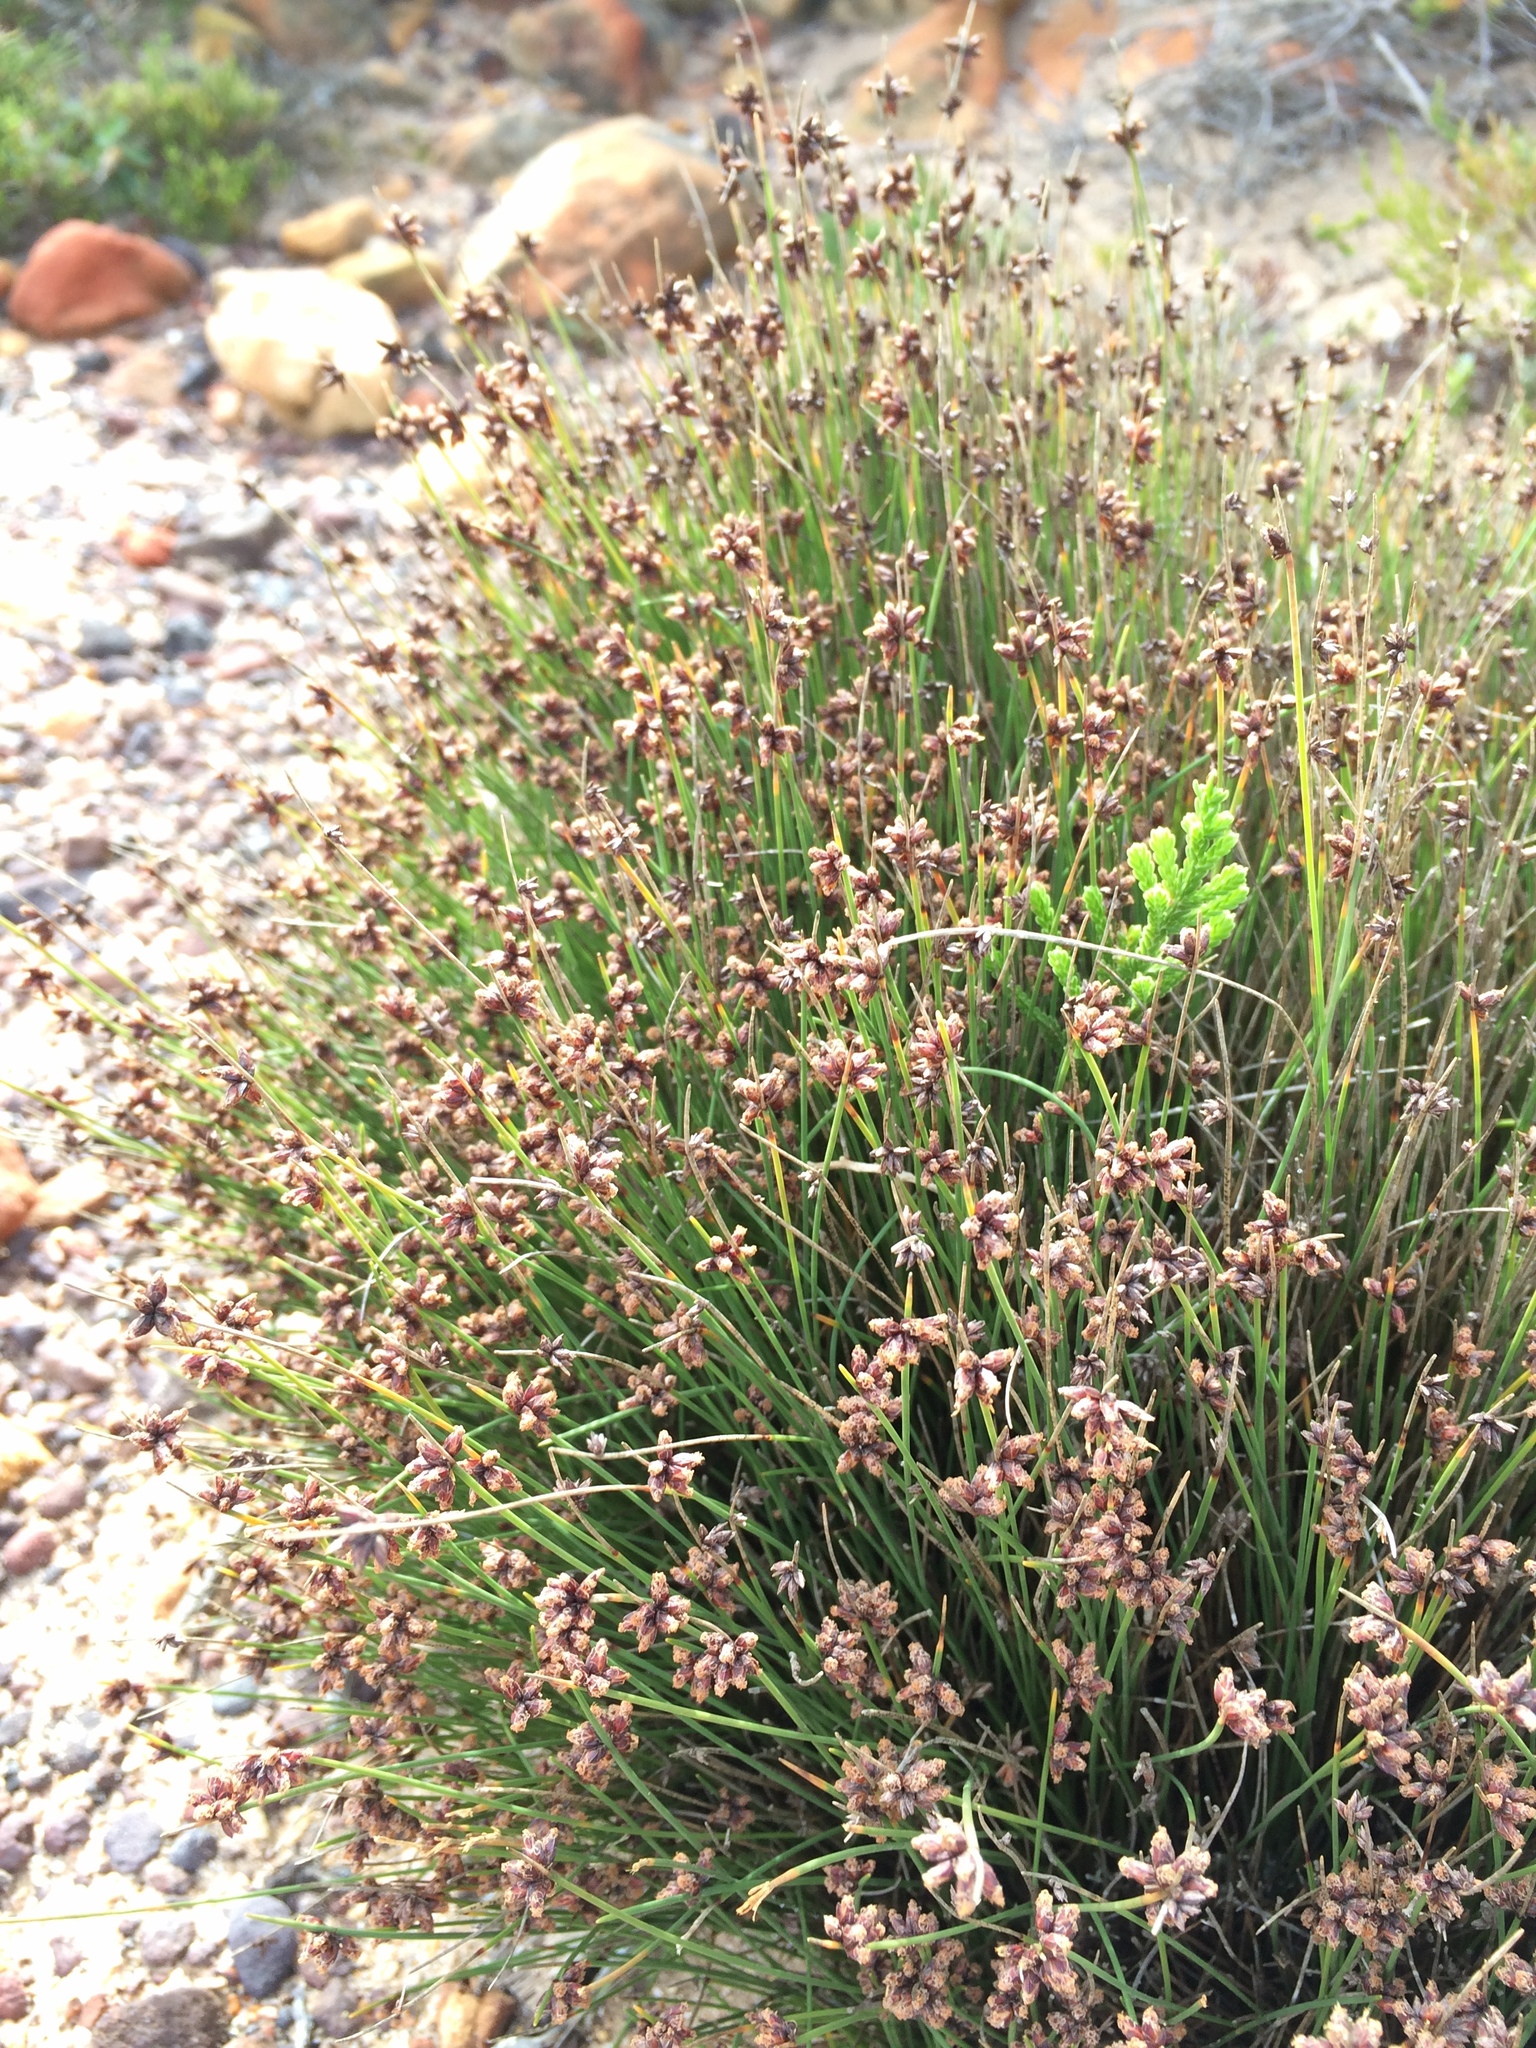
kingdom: Plantae
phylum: Tracheophyta
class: Liliopsida
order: Poales
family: Cyperaceae
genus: Ficinia
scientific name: Ficinia lateralis
